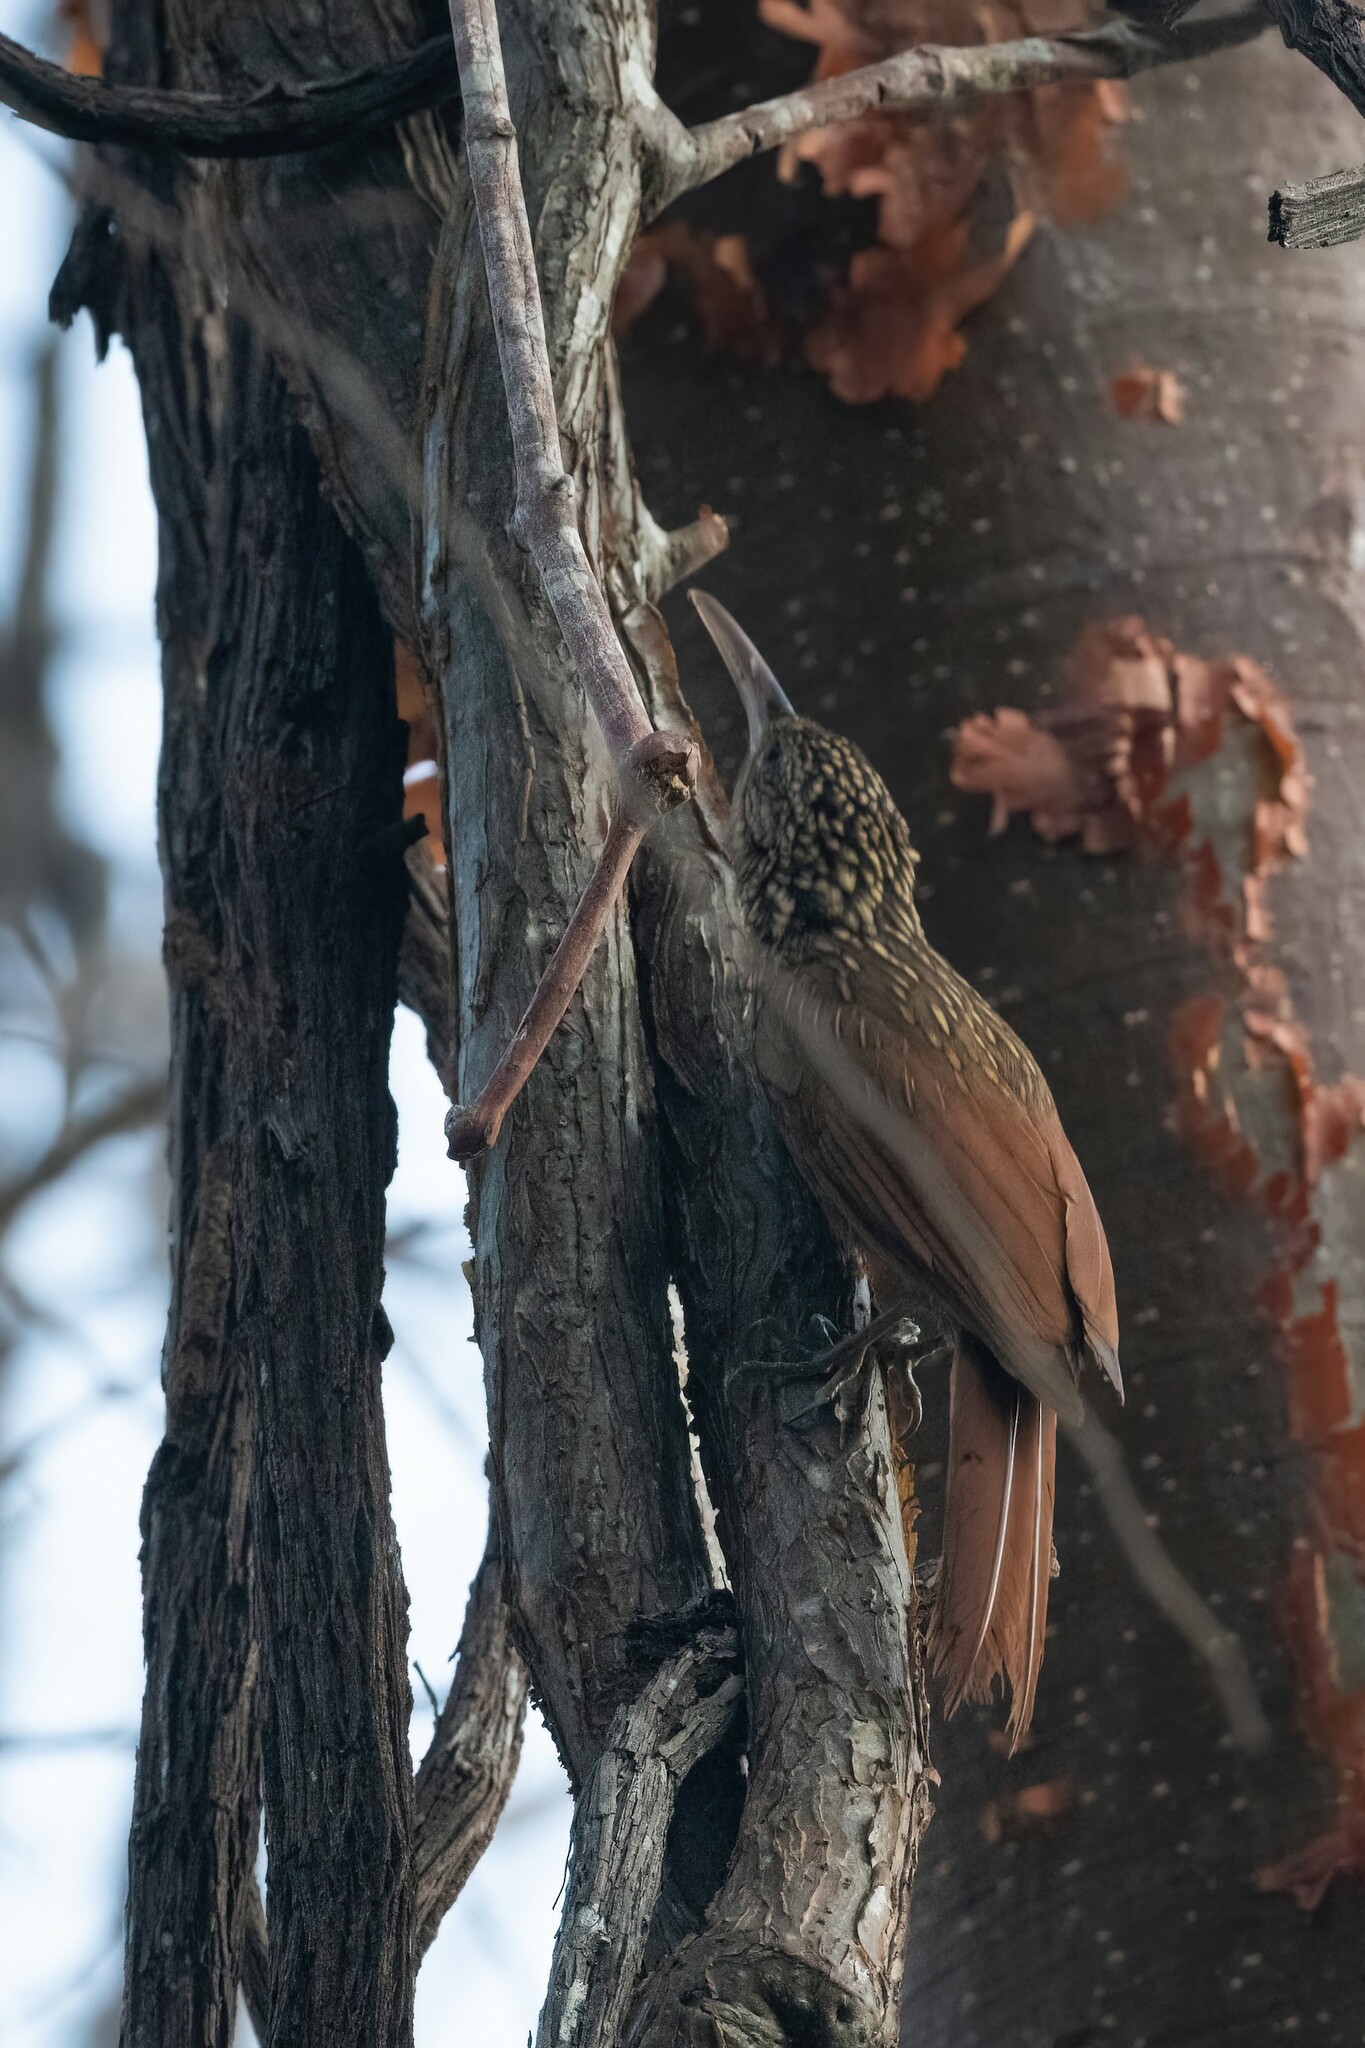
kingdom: Animalia
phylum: Chordata
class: Aves
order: Passeriformes
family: Furnariidae
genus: Xiphorhynchus
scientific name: Xiphorhynchus flavigaster
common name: Ivory-billed woodcreeper
